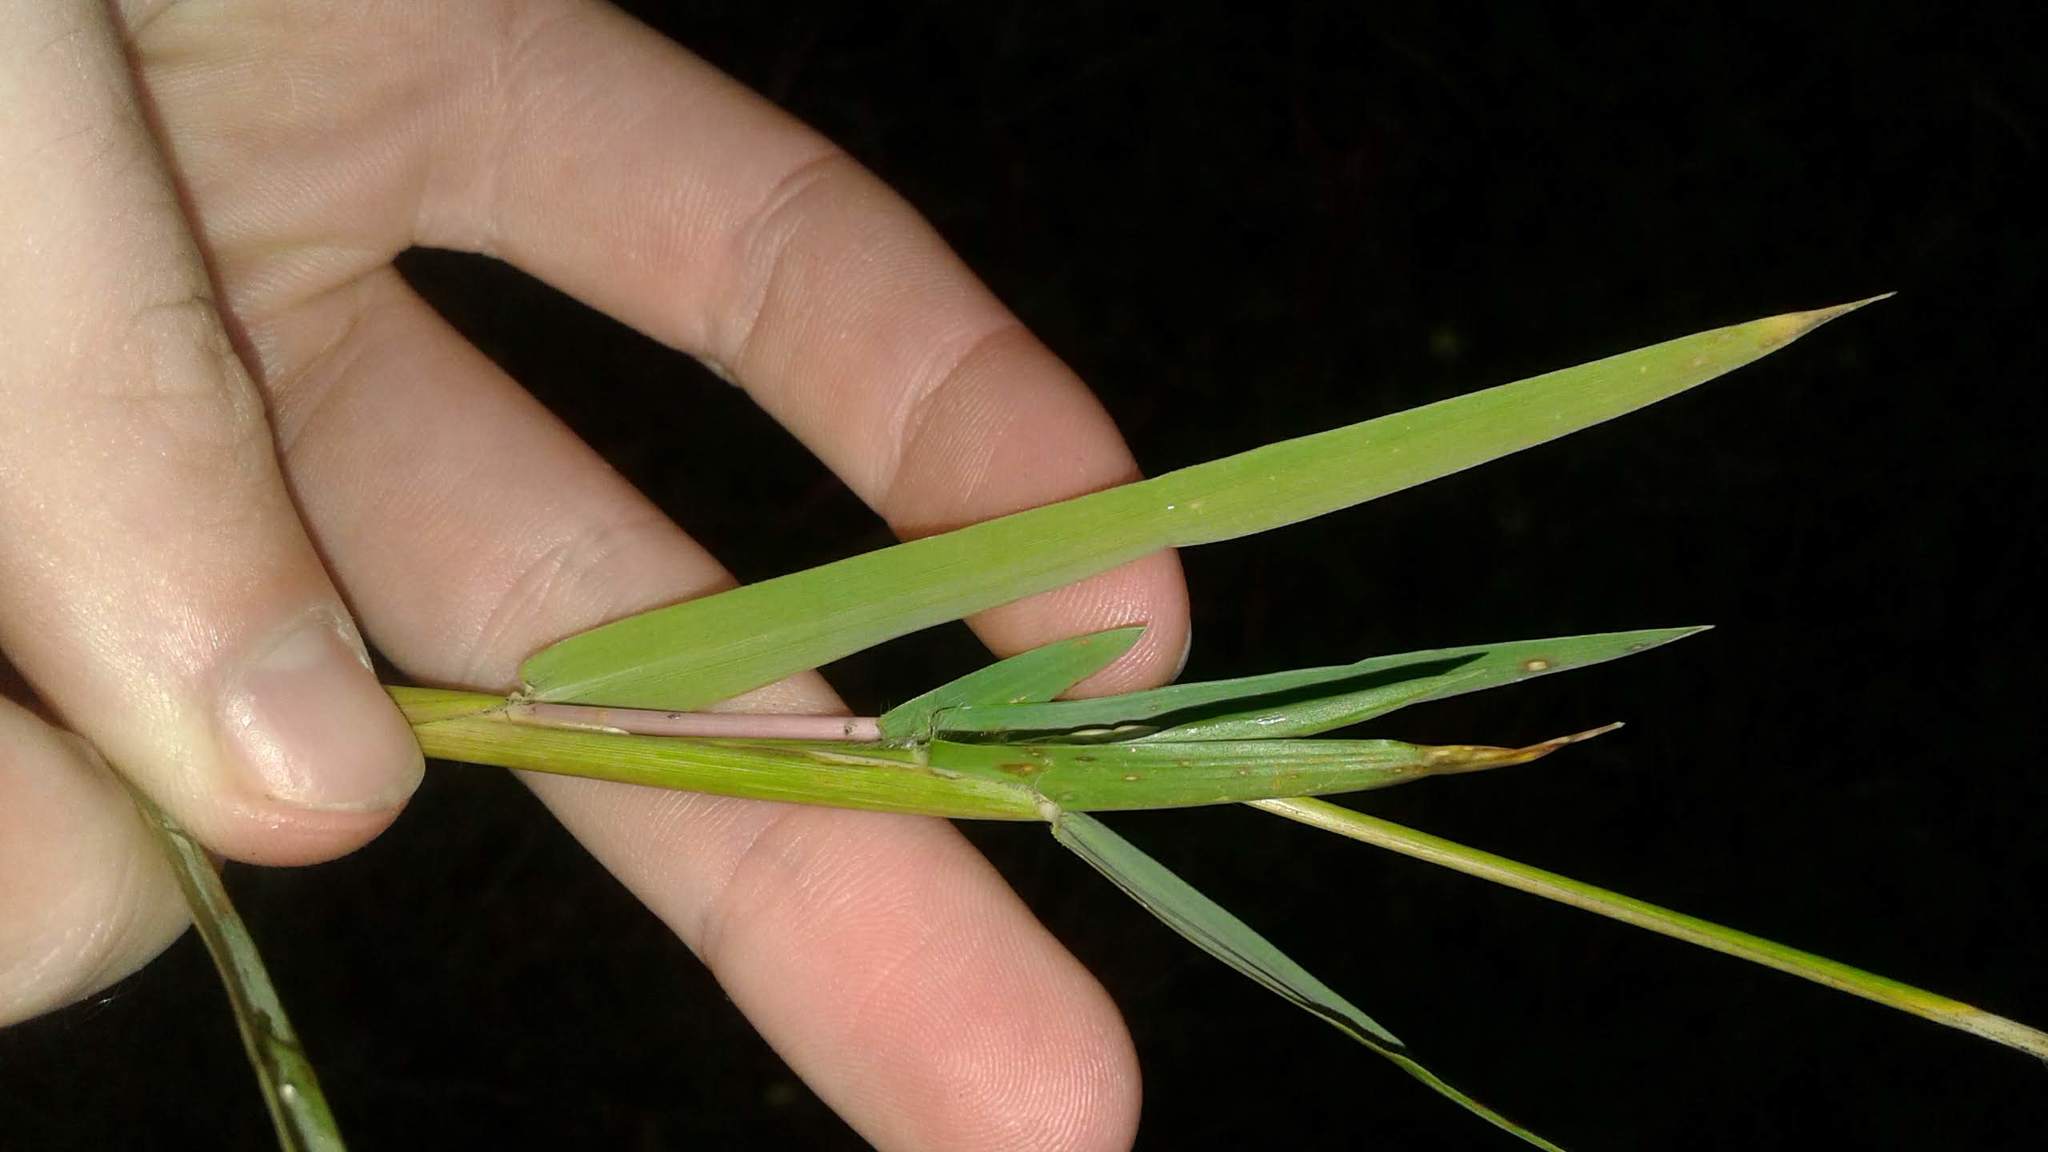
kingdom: Plantae
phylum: Tracheophyta
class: Liliopsida
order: Poales
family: Poaceae
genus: Paspalum
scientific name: Paspalum vaginatum
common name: Seashore paspalum
